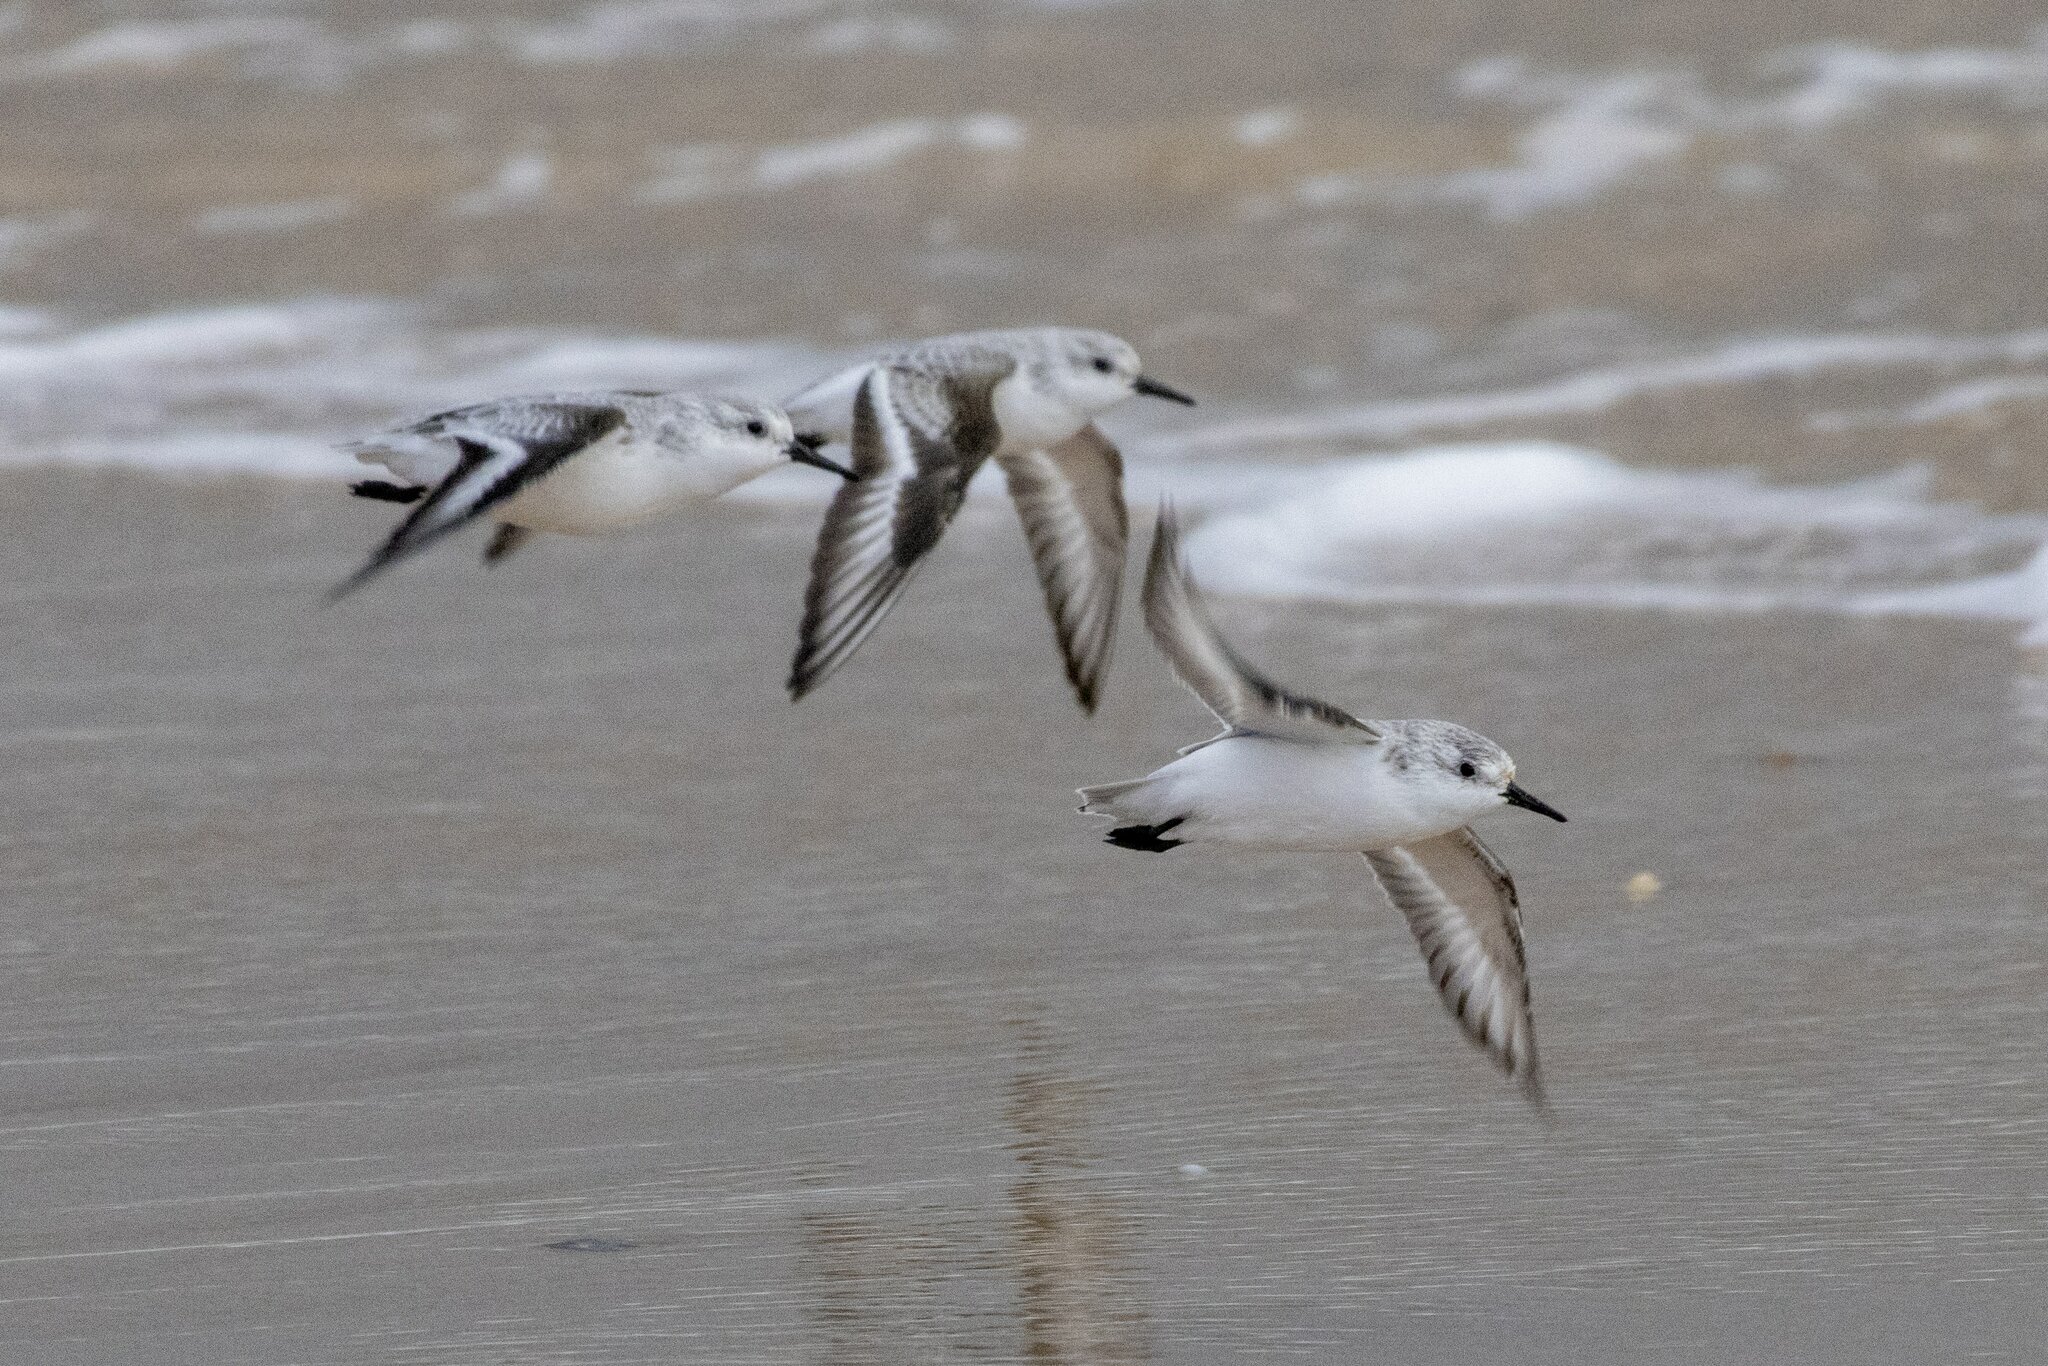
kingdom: Animalia
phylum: Chordata
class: Aves
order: Charadriiformes
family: Scolopacidae
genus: Calidris
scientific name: Calidris alba
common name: Sanderling
